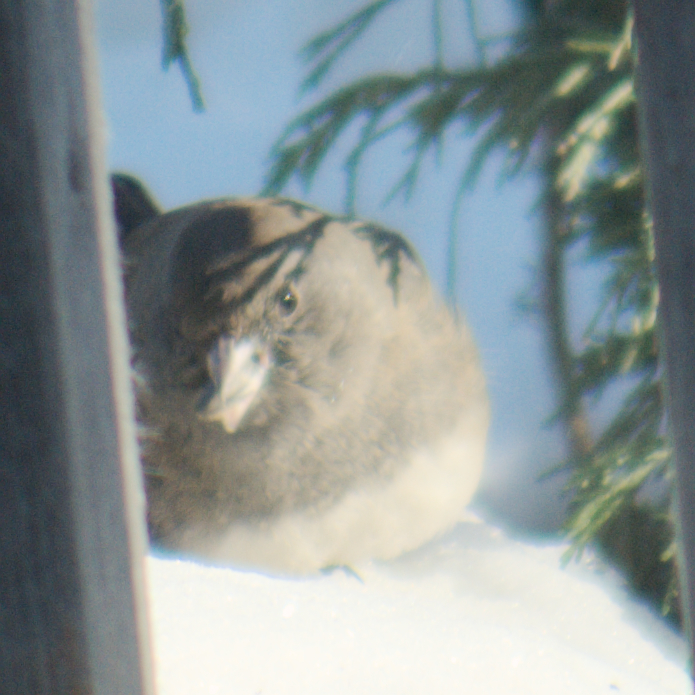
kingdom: Animalia
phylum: Chordata
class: Aves
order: Passeriformes
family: Passerellidae
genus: Junco
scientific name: Junco hyemalis
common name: Dark-eyed junco
